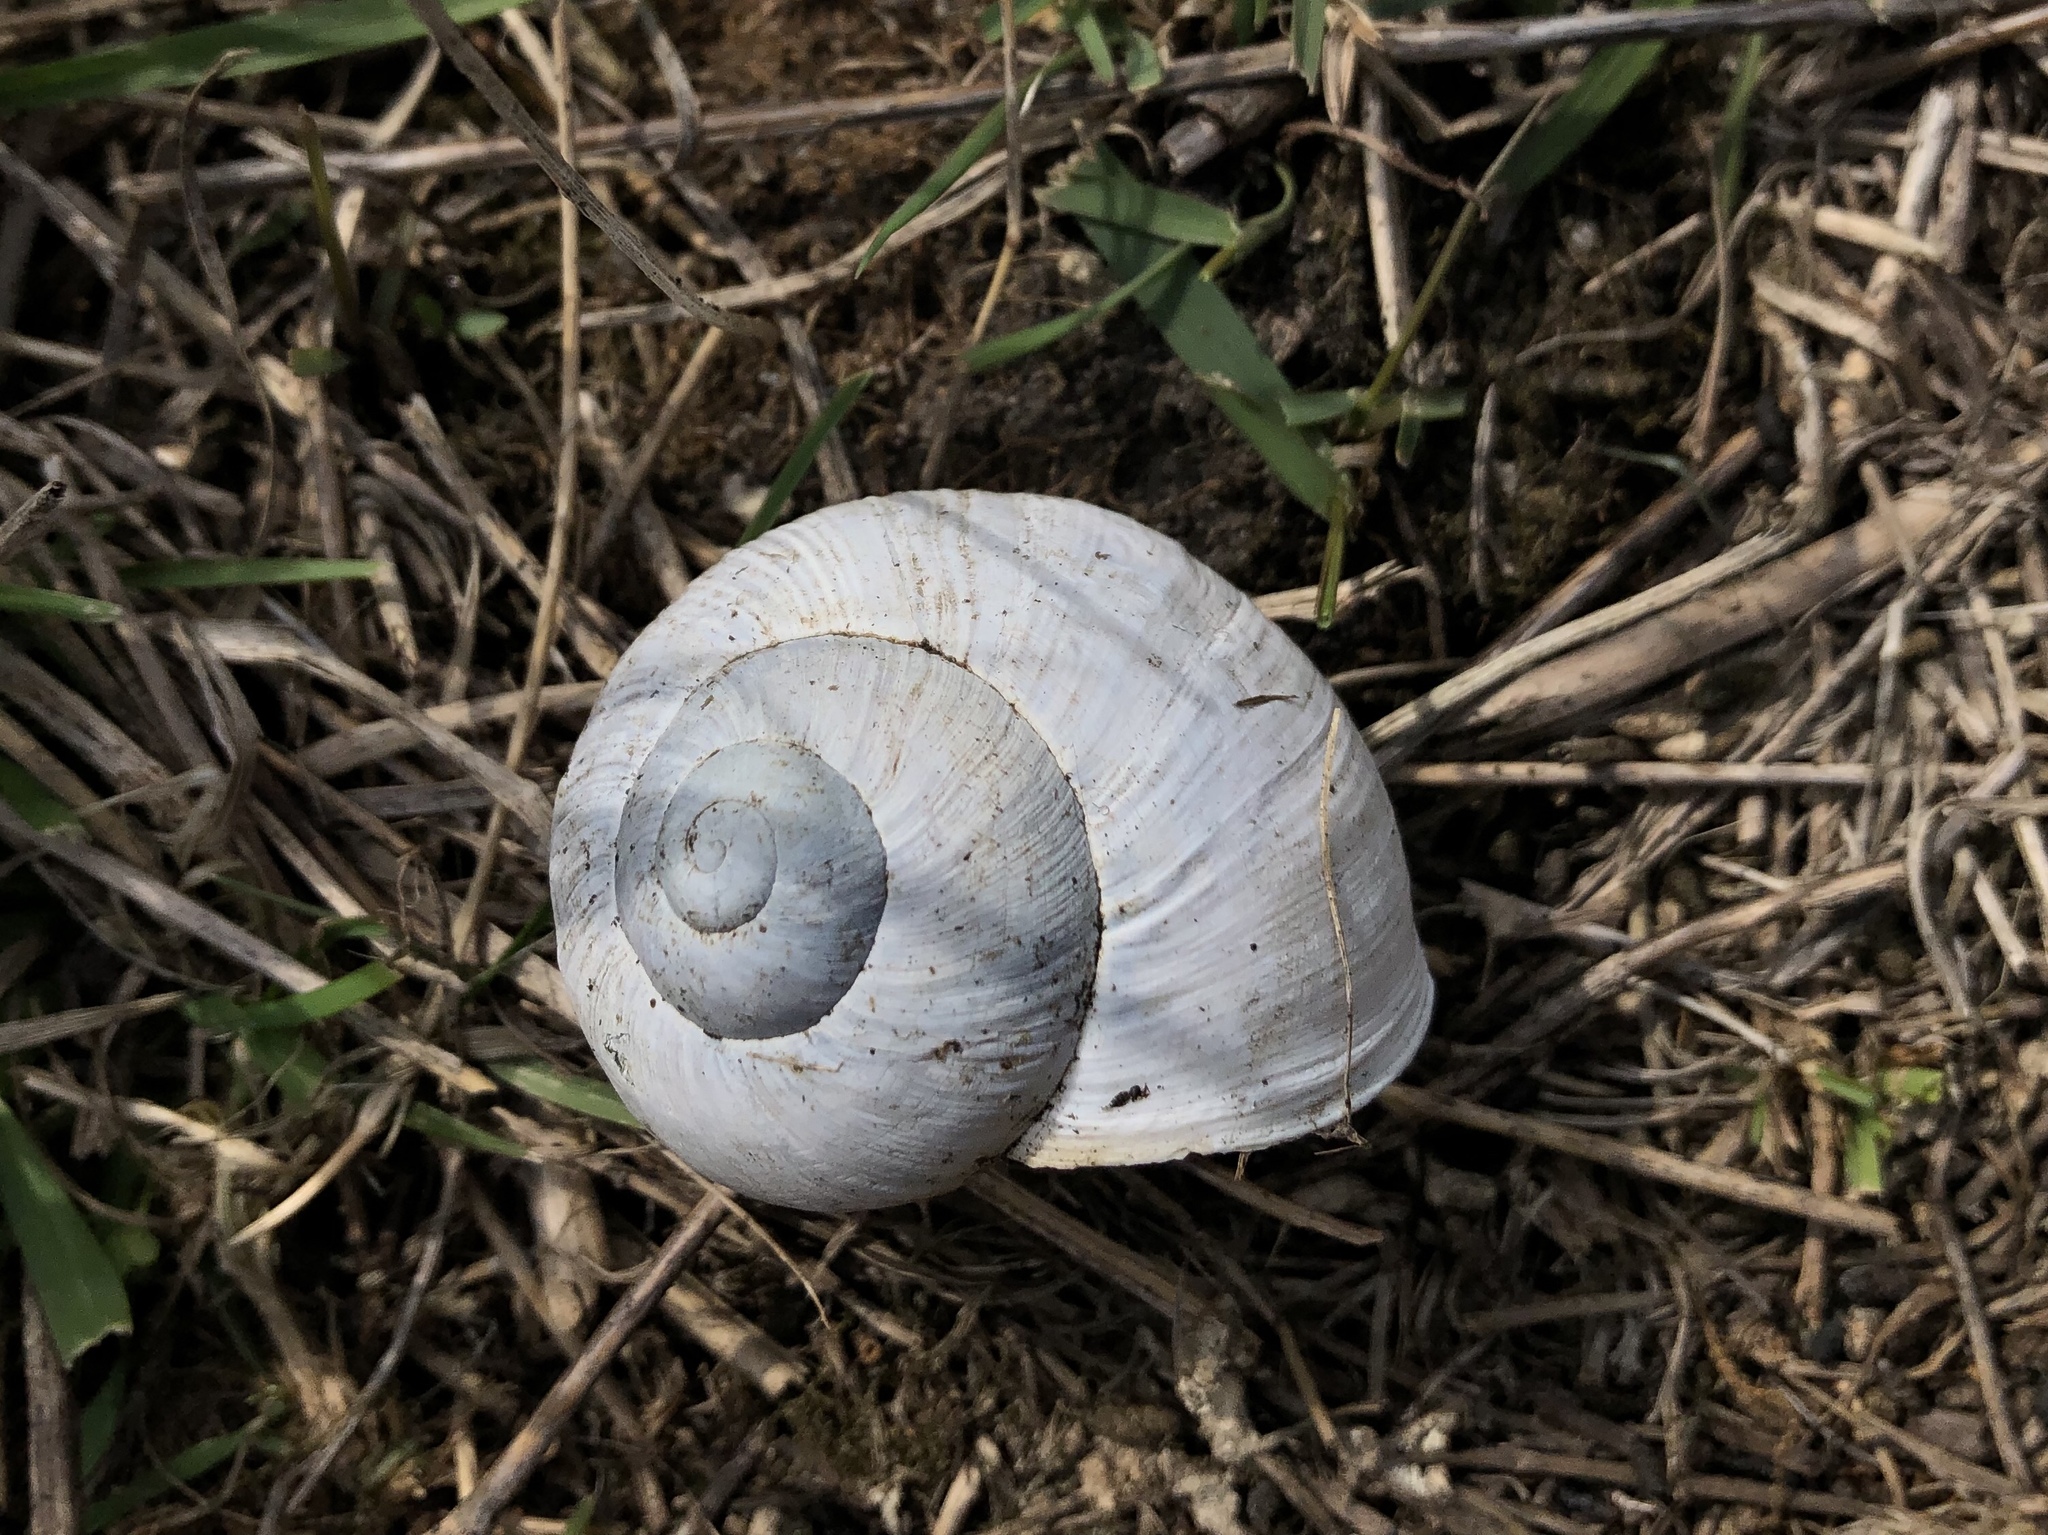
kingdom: Animalia
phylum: Mollusca
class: Gastropoda
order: Stylommatophora
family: Helicidae
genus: Helix
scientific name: Helix pomatia
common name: Roman snail
